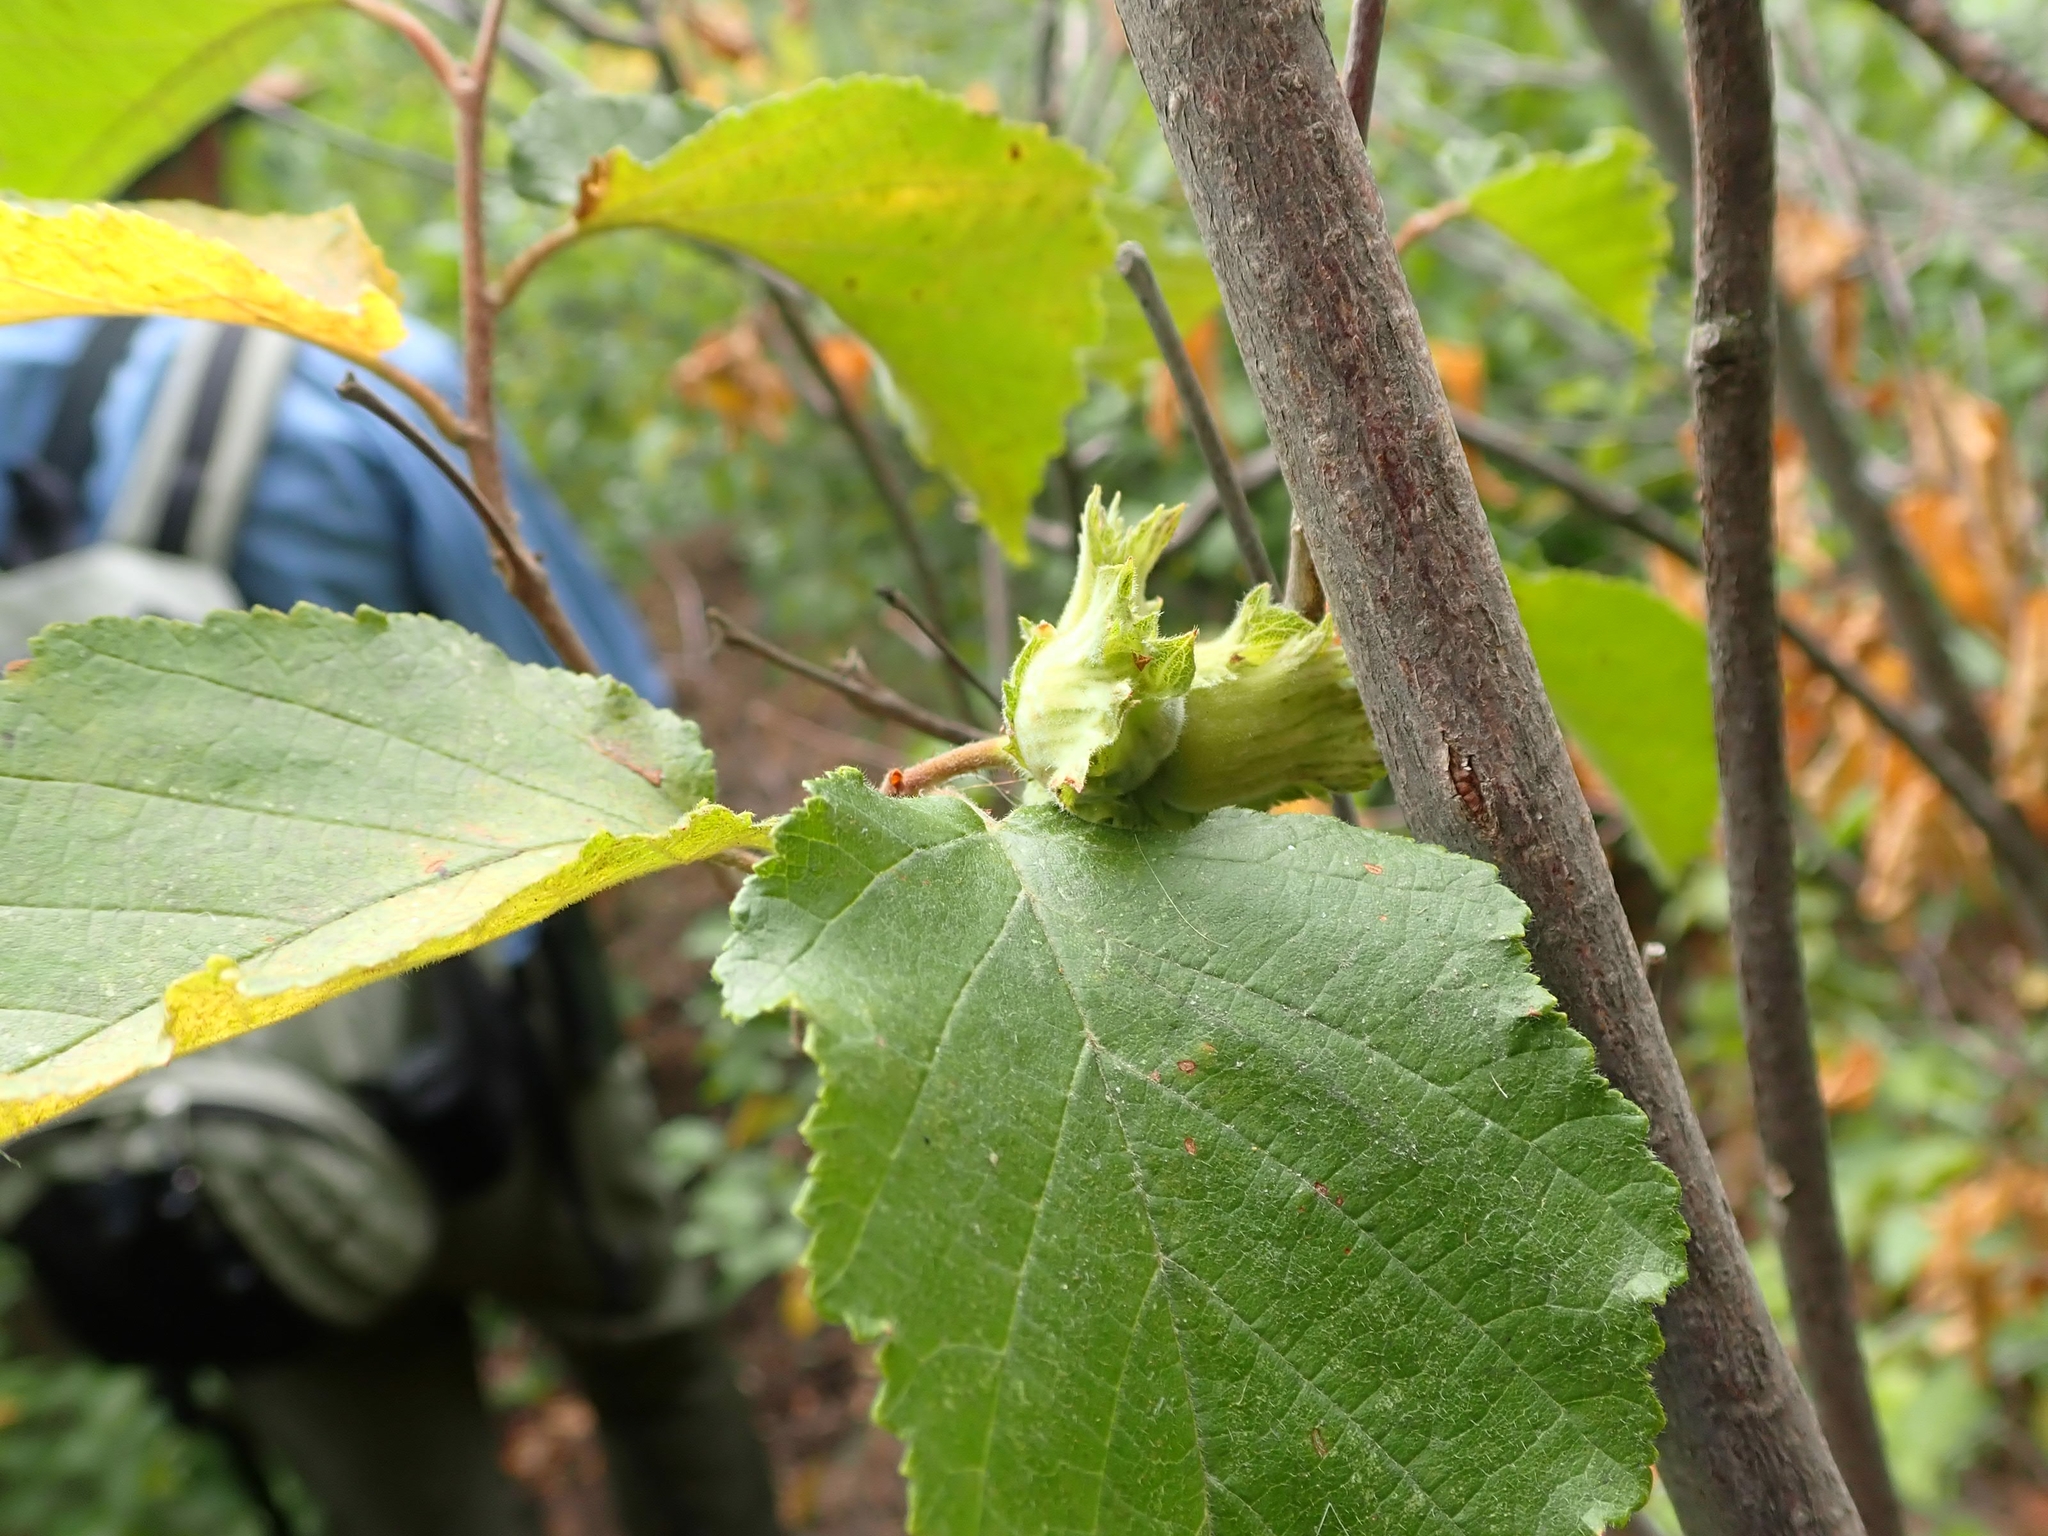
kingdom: Plantae
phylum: Tracheophyta
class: Magnoliopsida
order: Fagales
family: Betulaceae
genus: Corylus
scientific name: Corylus americana
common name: American hazel
